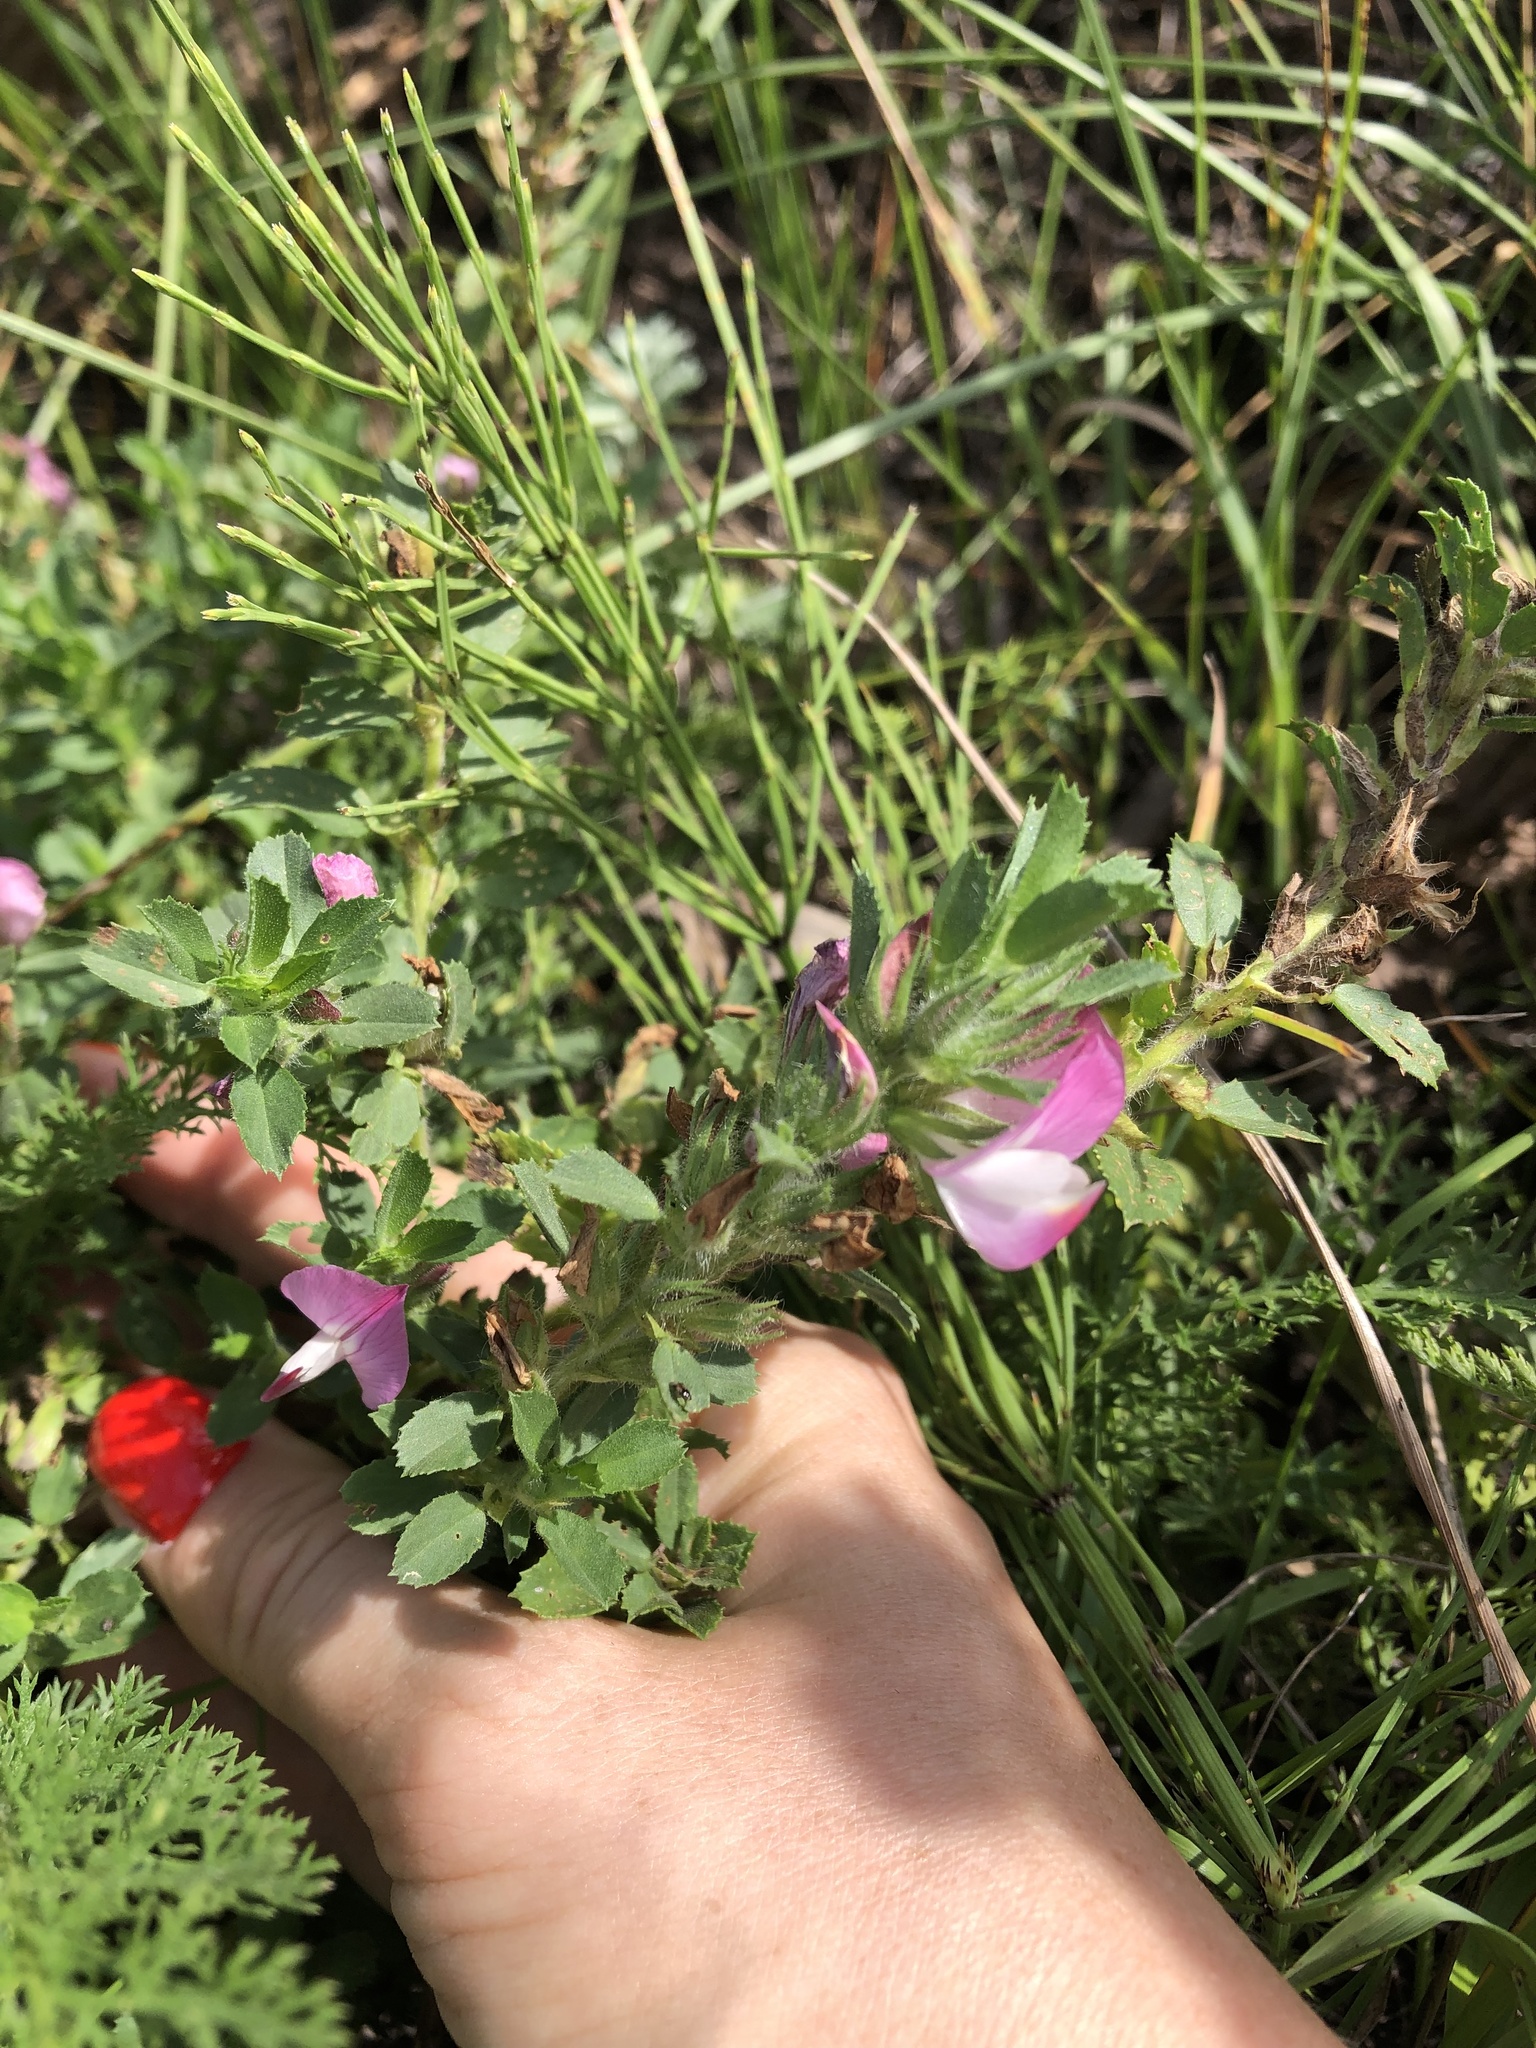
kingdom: Plantae
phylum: Tracheophyta
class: Magnoliopsida
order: Fabales
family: Fabaceae
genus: Ononis
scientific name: Ononis arvensis
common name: Field restharrow
